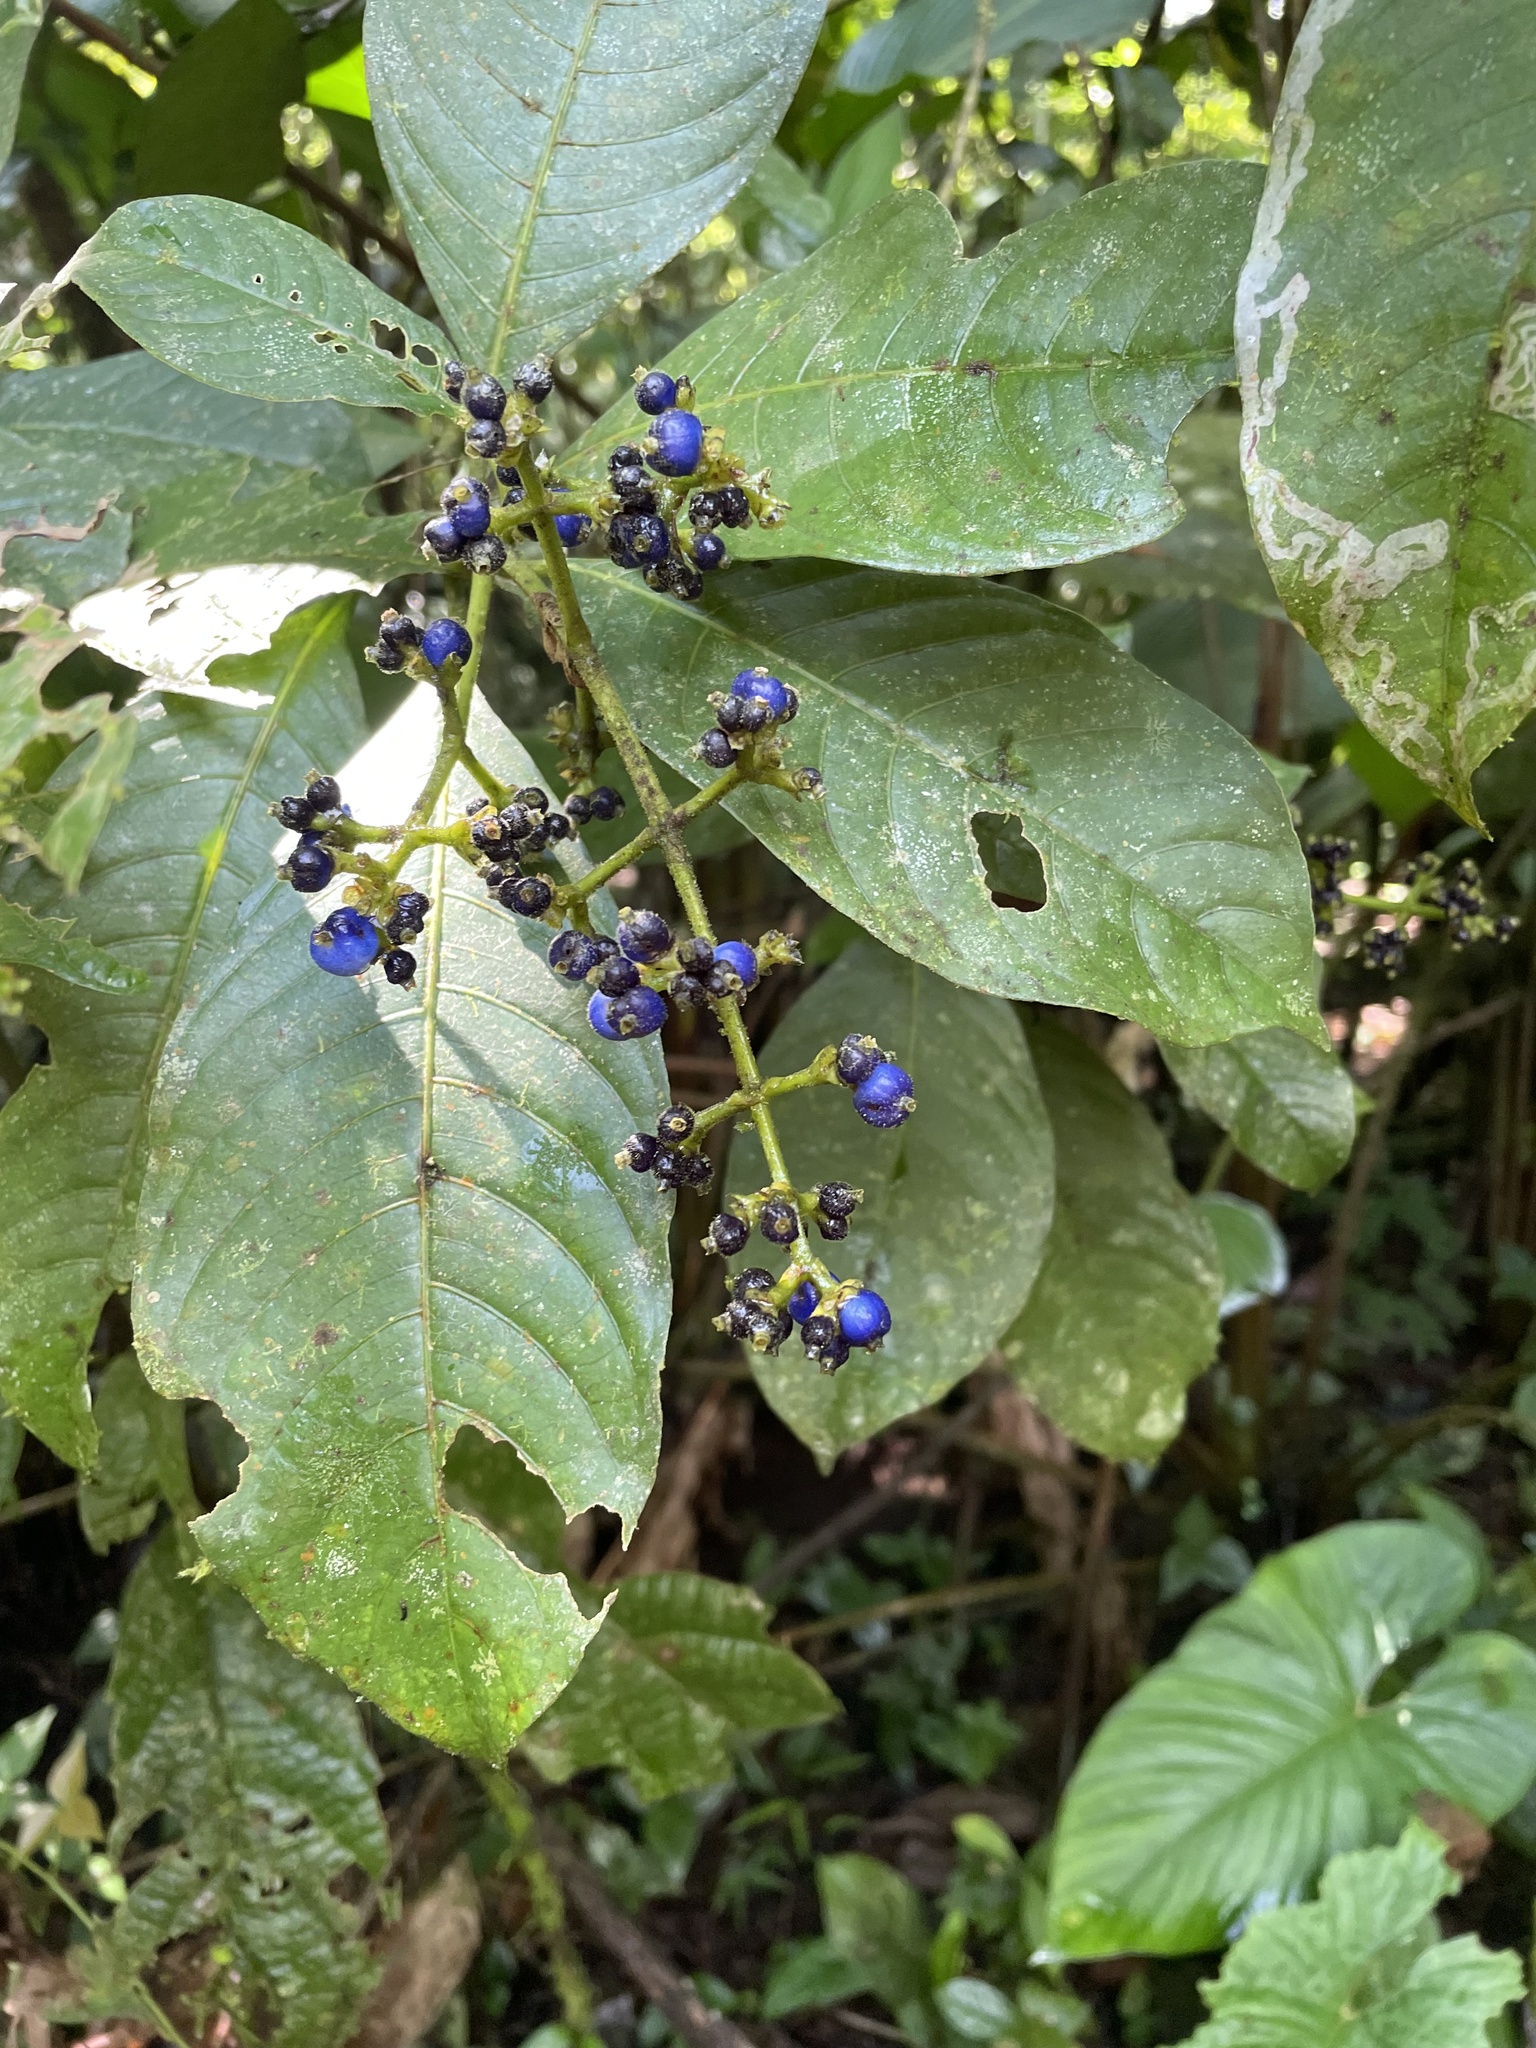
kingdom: Plantae
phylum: Tracheophyta
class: Magnoliopsida
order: Gentianales
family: Rubiaceae
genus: Palicourea
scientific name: Palicourea brachiata
